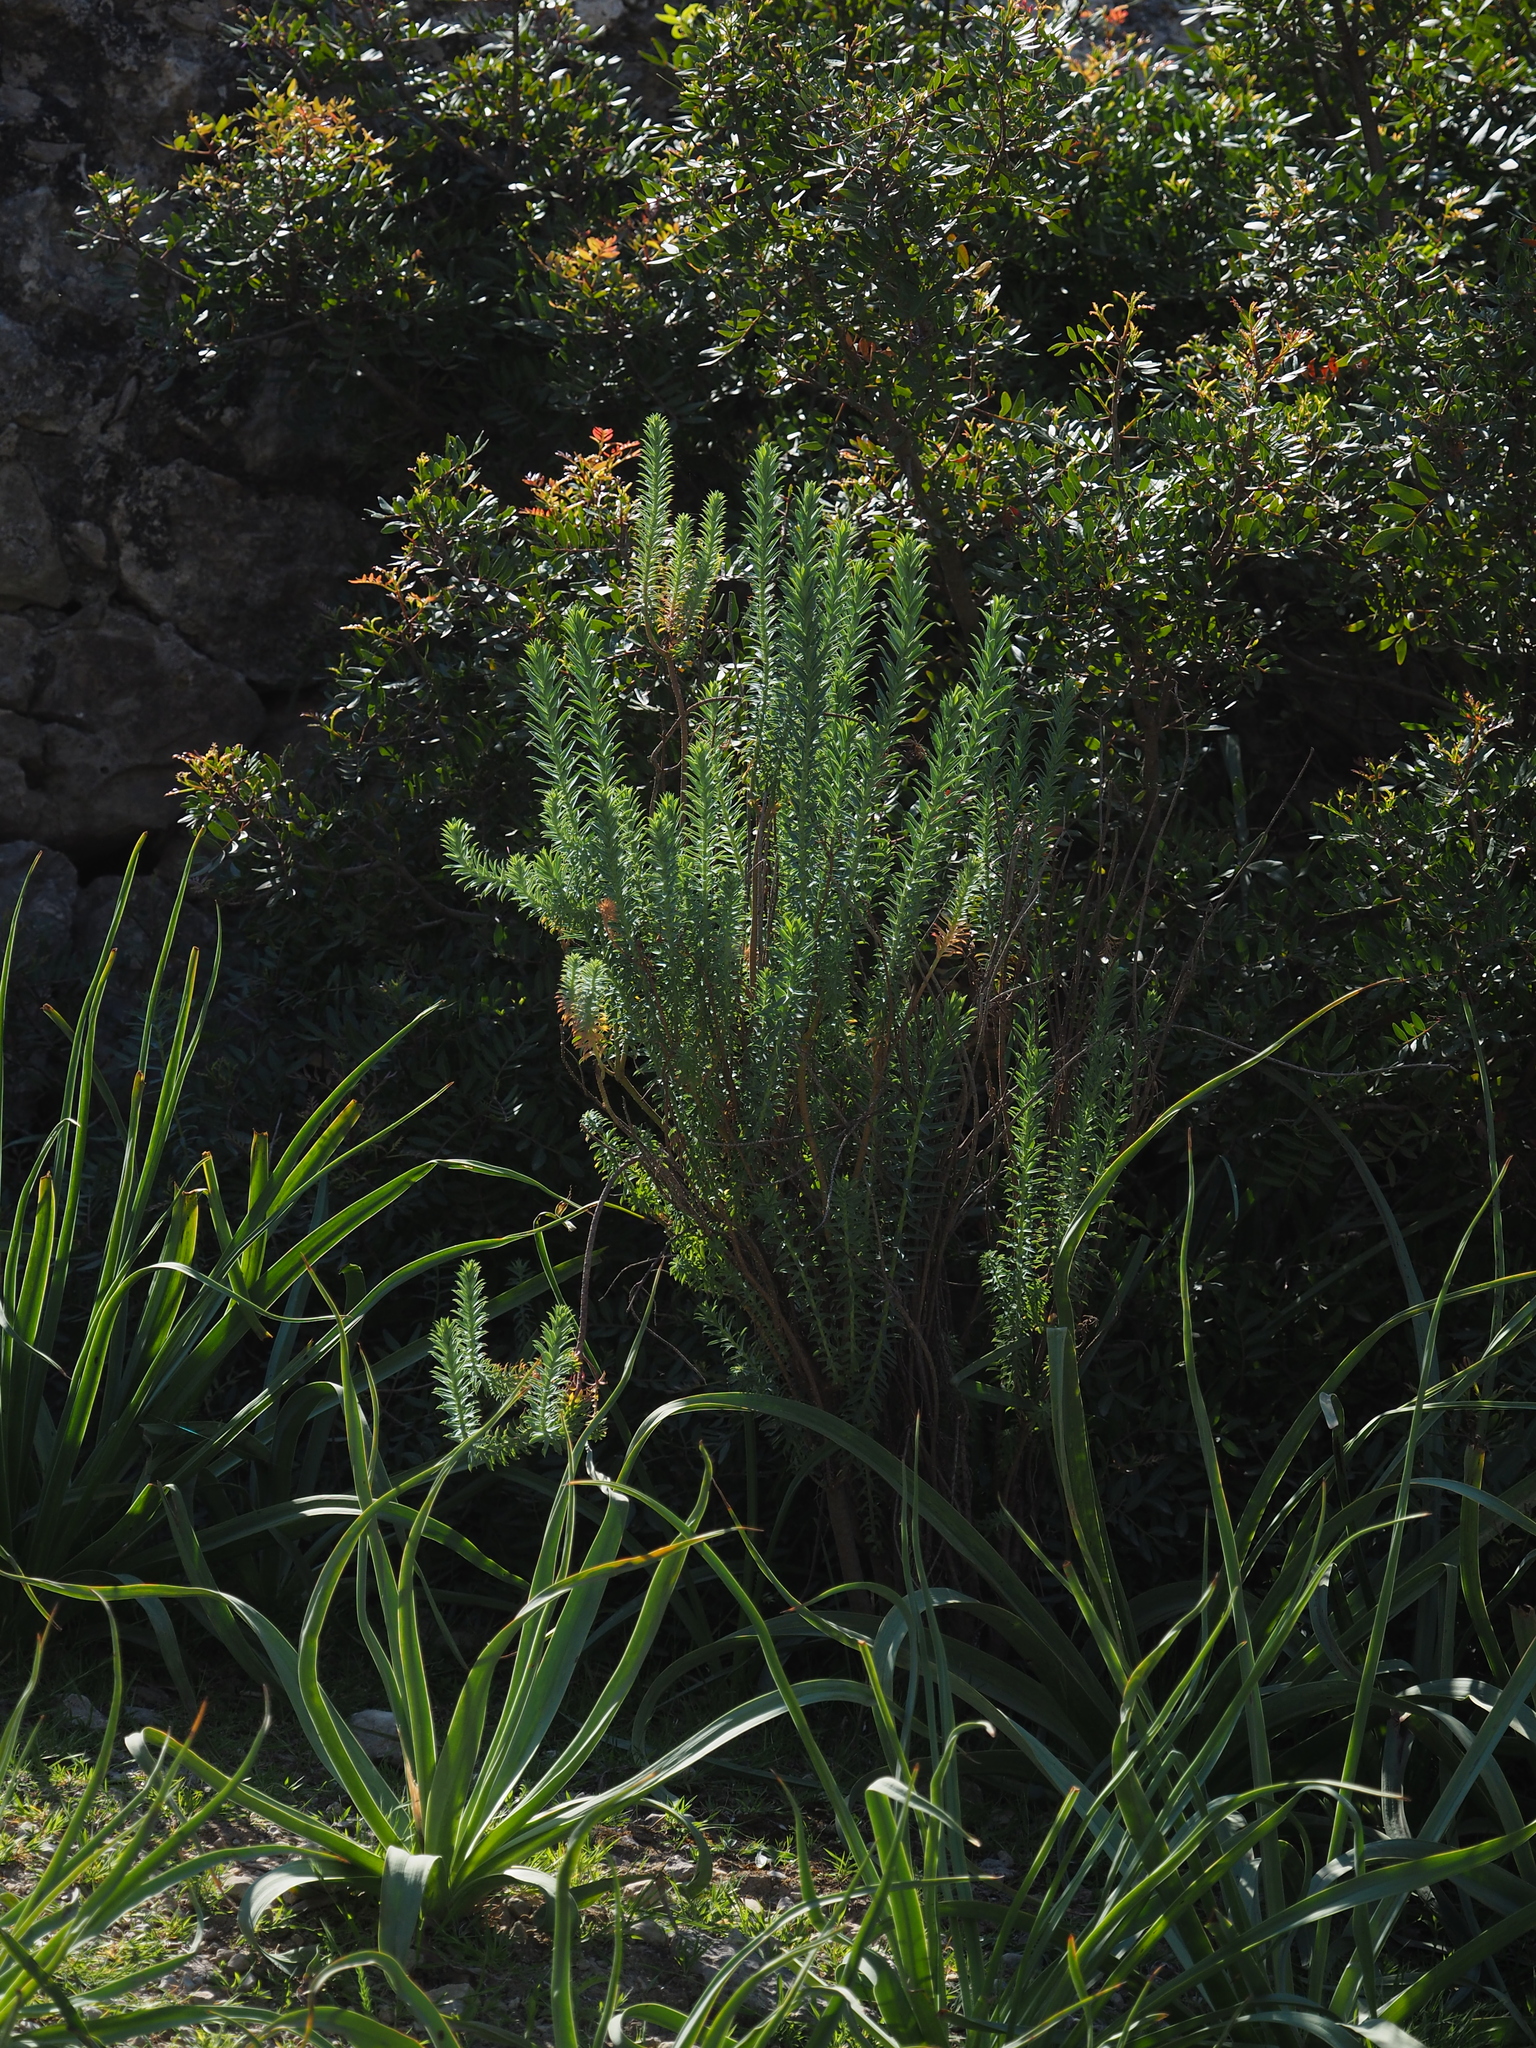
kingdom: Plantae
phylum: Tracheophyta
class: Magnoliopsida
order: Malpighiales
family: Euphorbiaceae
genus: Euphorbia
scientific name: Euphorbia pithyusa
